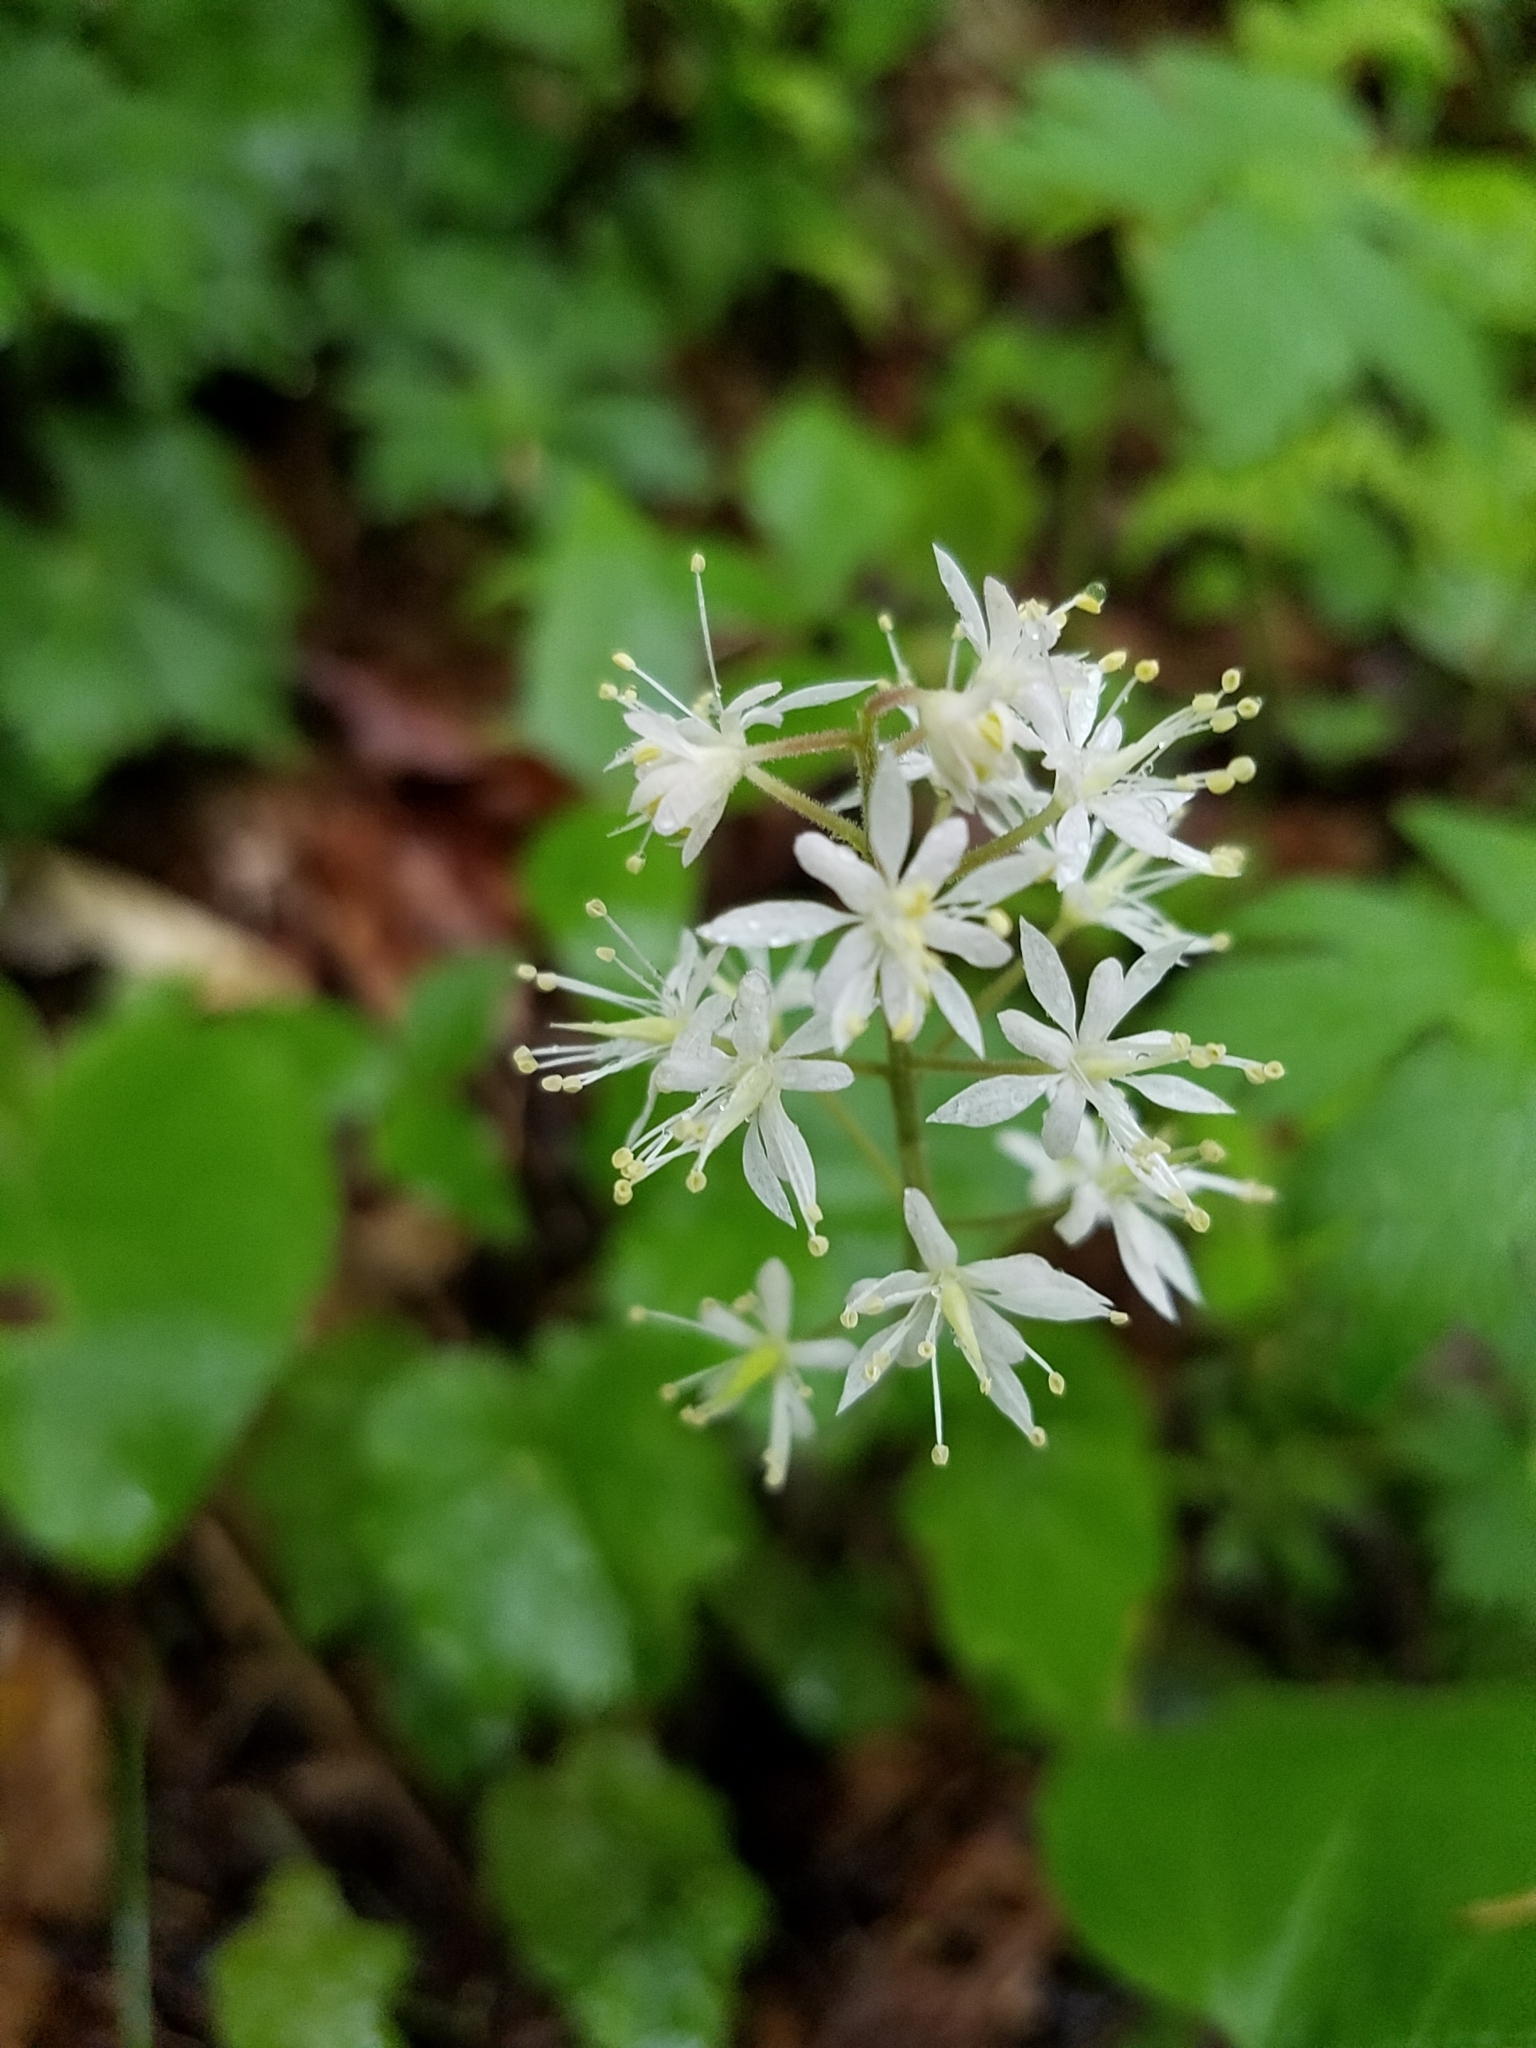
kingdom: Plantae
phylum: Tracheophyta
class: Magnoliopsida
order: Saxifragales
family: Saxifragaceae
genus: Tiarella
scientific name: Tiarella stolonifera
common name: Stoloniferous foamflower
